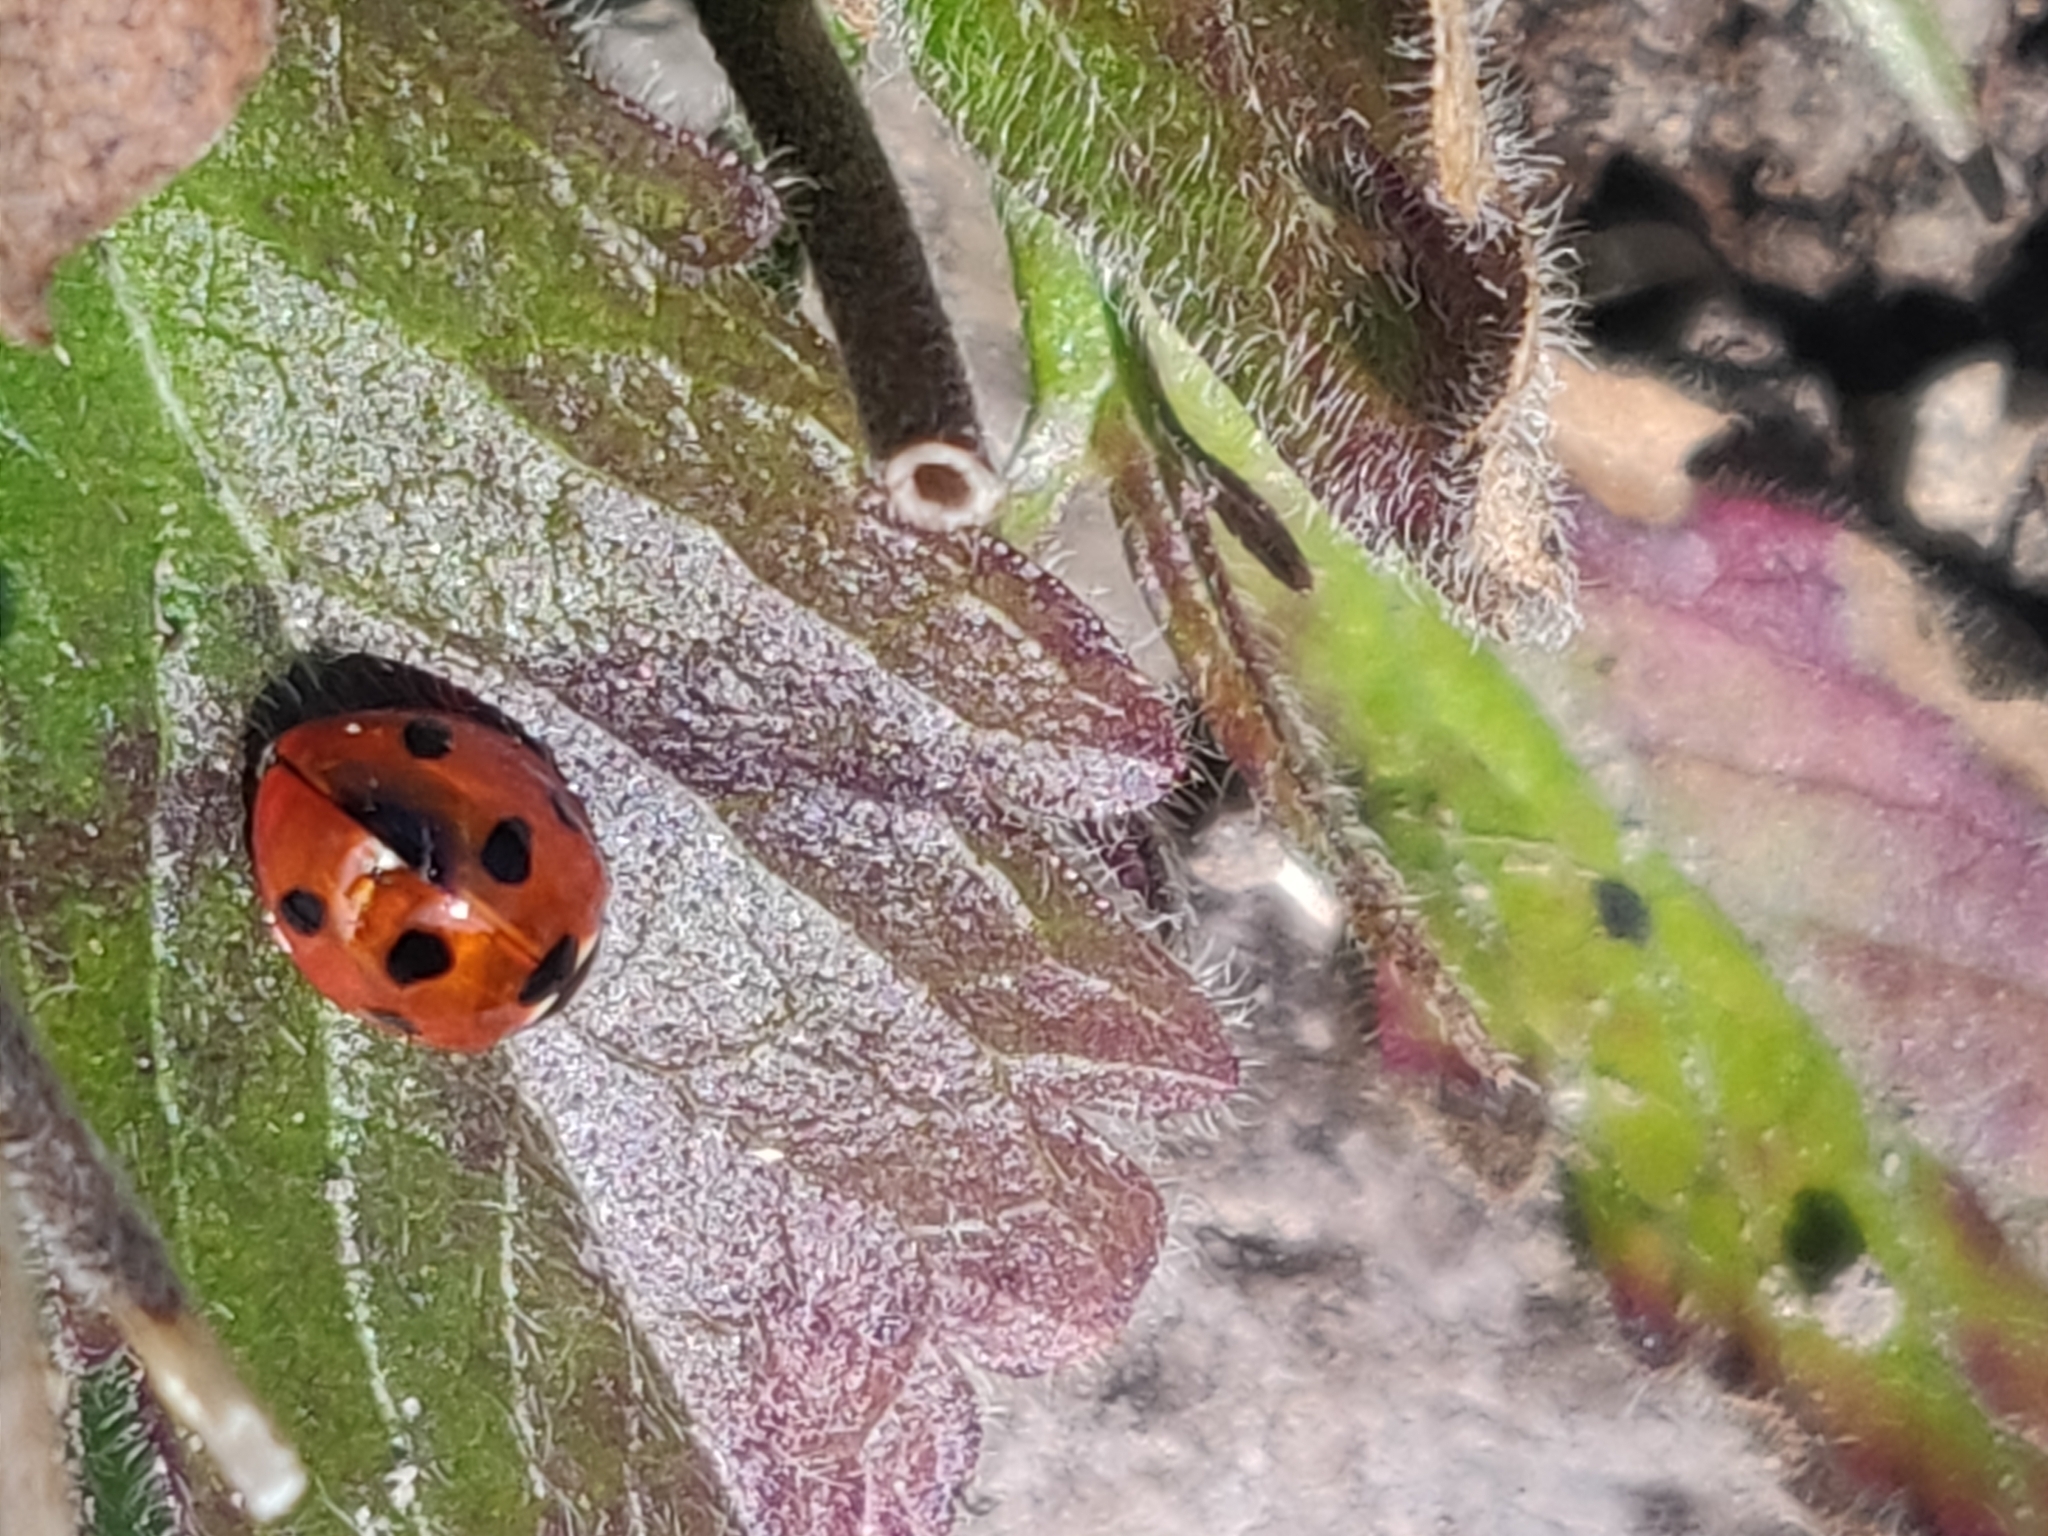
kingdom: Animalia
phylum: Arthropoda
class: Insecta
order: Coleoptera
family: Coccinellidae
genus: Coccinella
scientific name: Coccinella septempunctata
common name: Sevenspotted lady beetle
